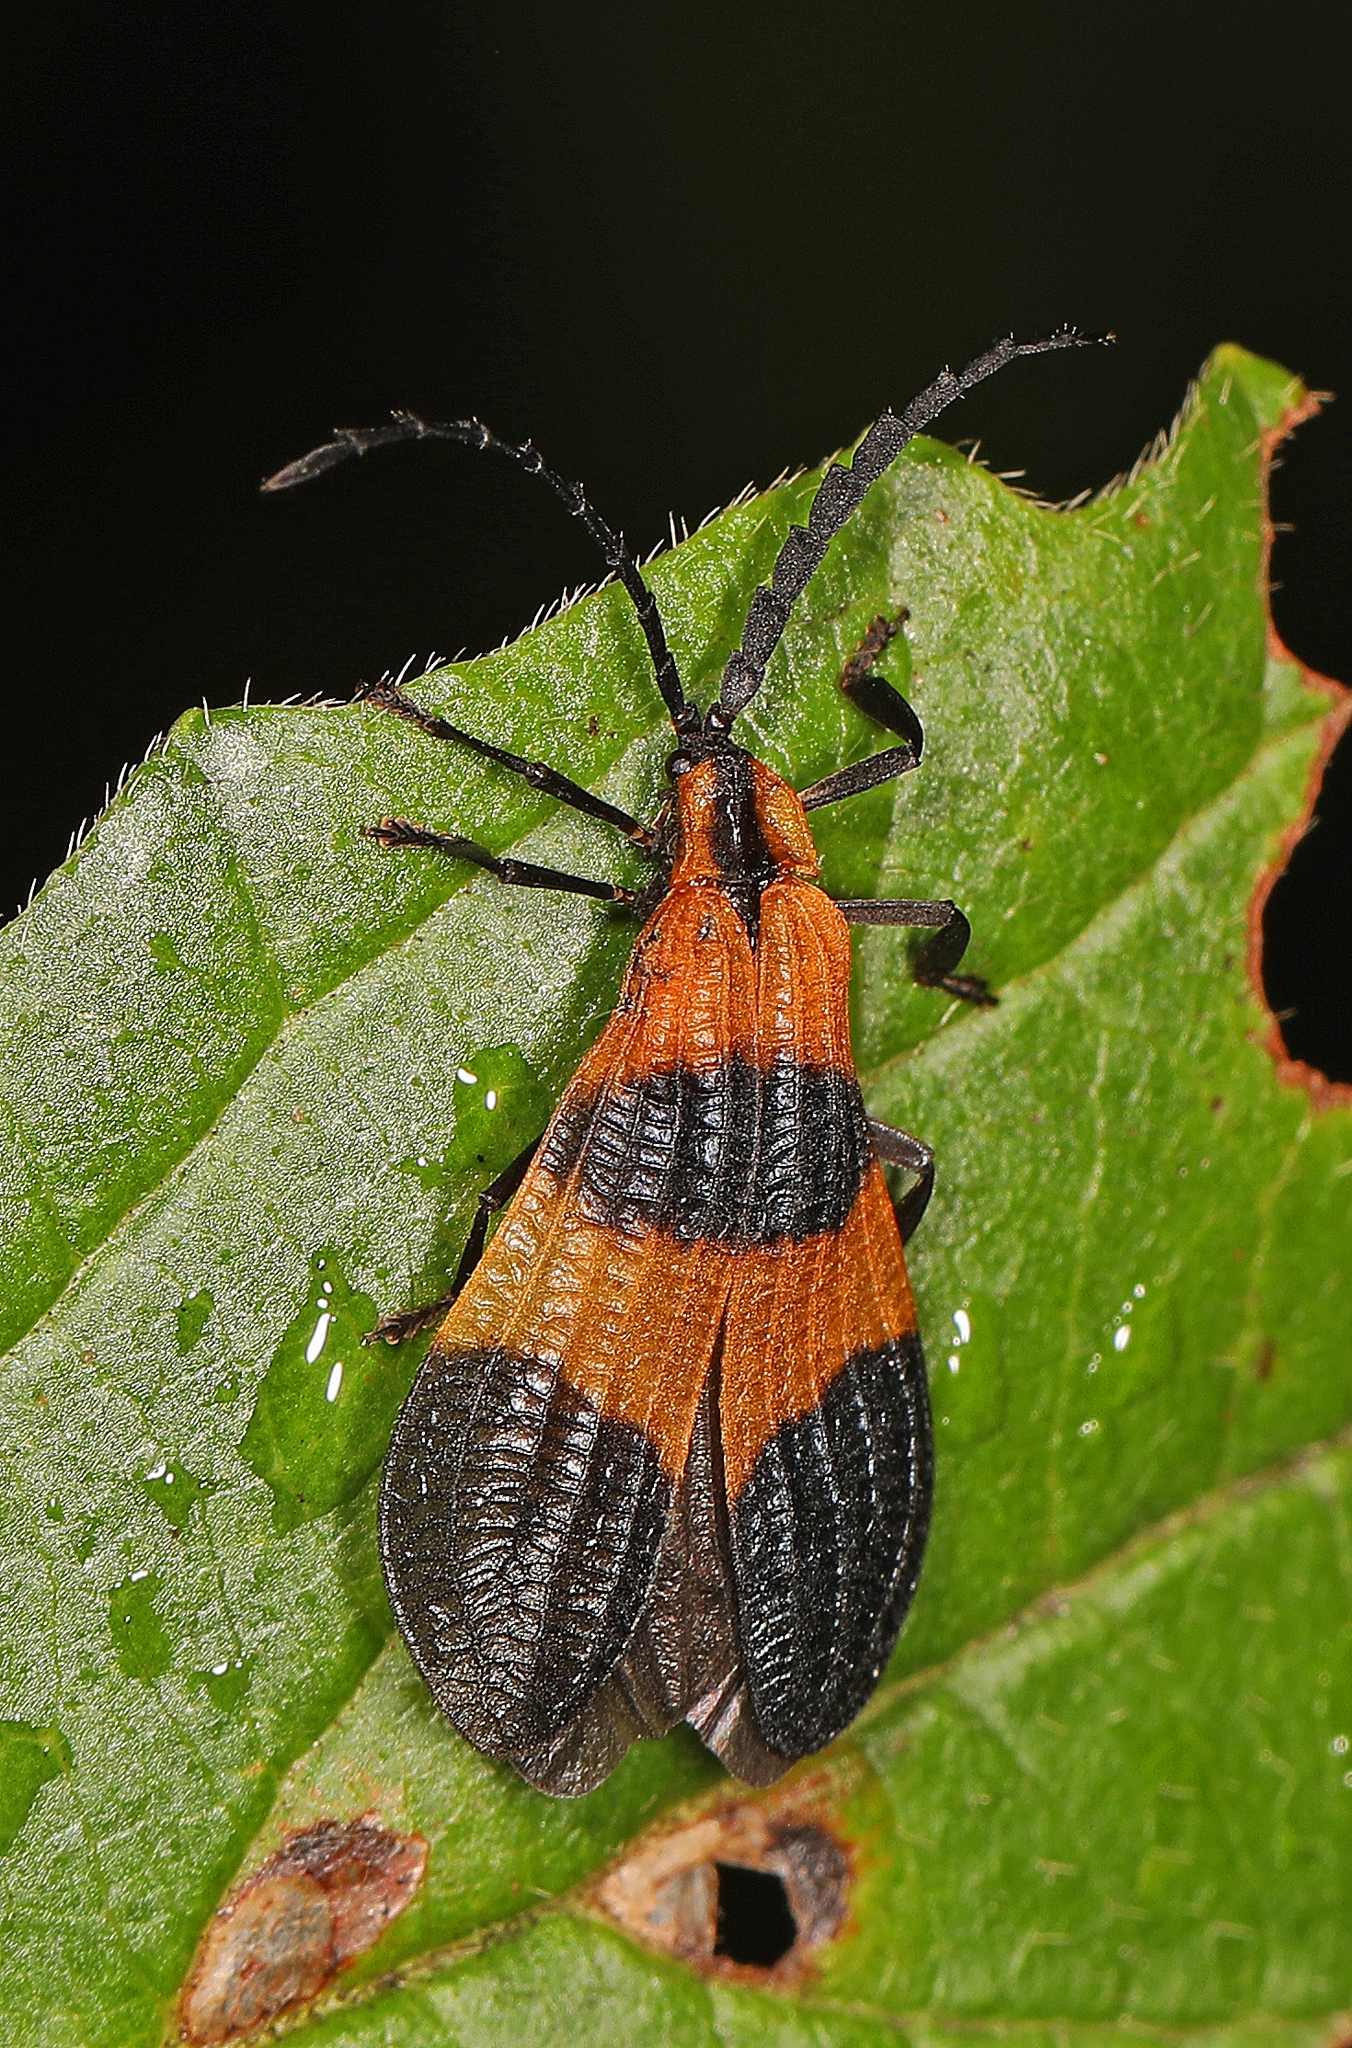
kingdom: Animalia
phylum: Arthropoda
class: Insecta
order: Coleoptera
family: Lycidae
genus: Calopteron
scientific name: Calopteron terminale
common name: End band net-winged beetle
